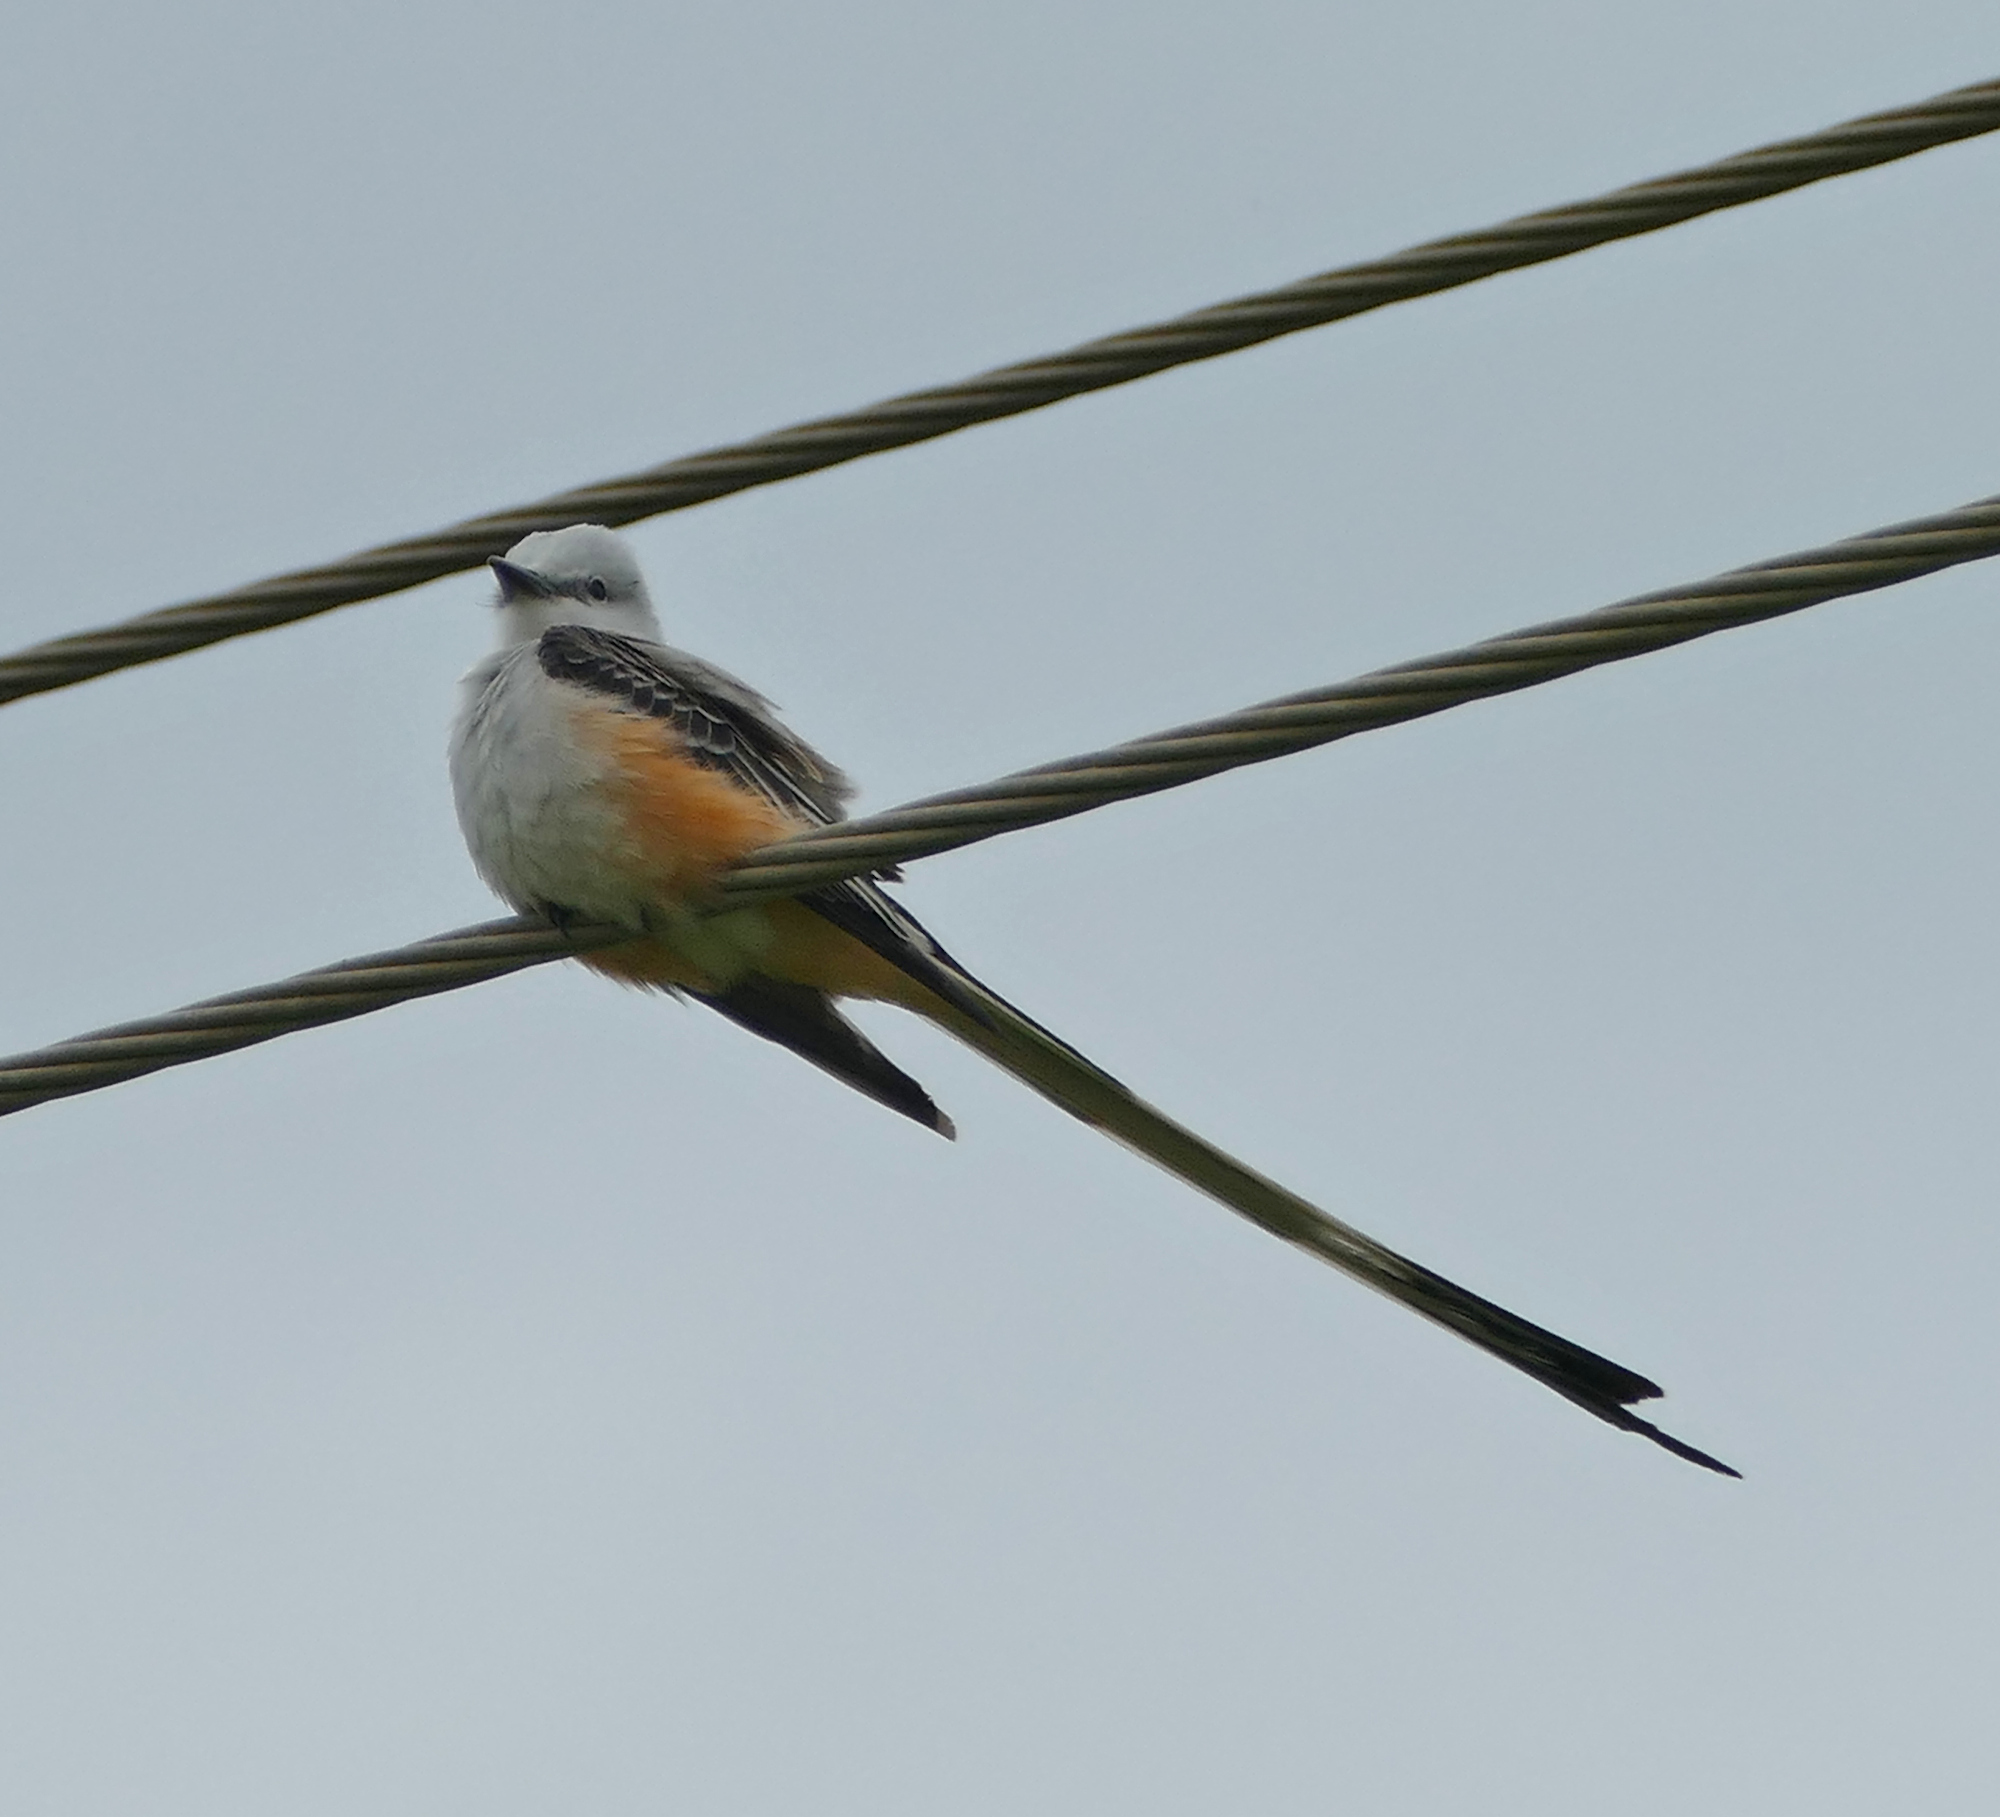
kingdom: Animalia
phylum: Chordata
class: Aves
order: Passeriformes
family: Tyrannidae
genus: Tyrannus
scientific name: Tyrannus forficatus
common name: Scissor-tailed flycatcher
